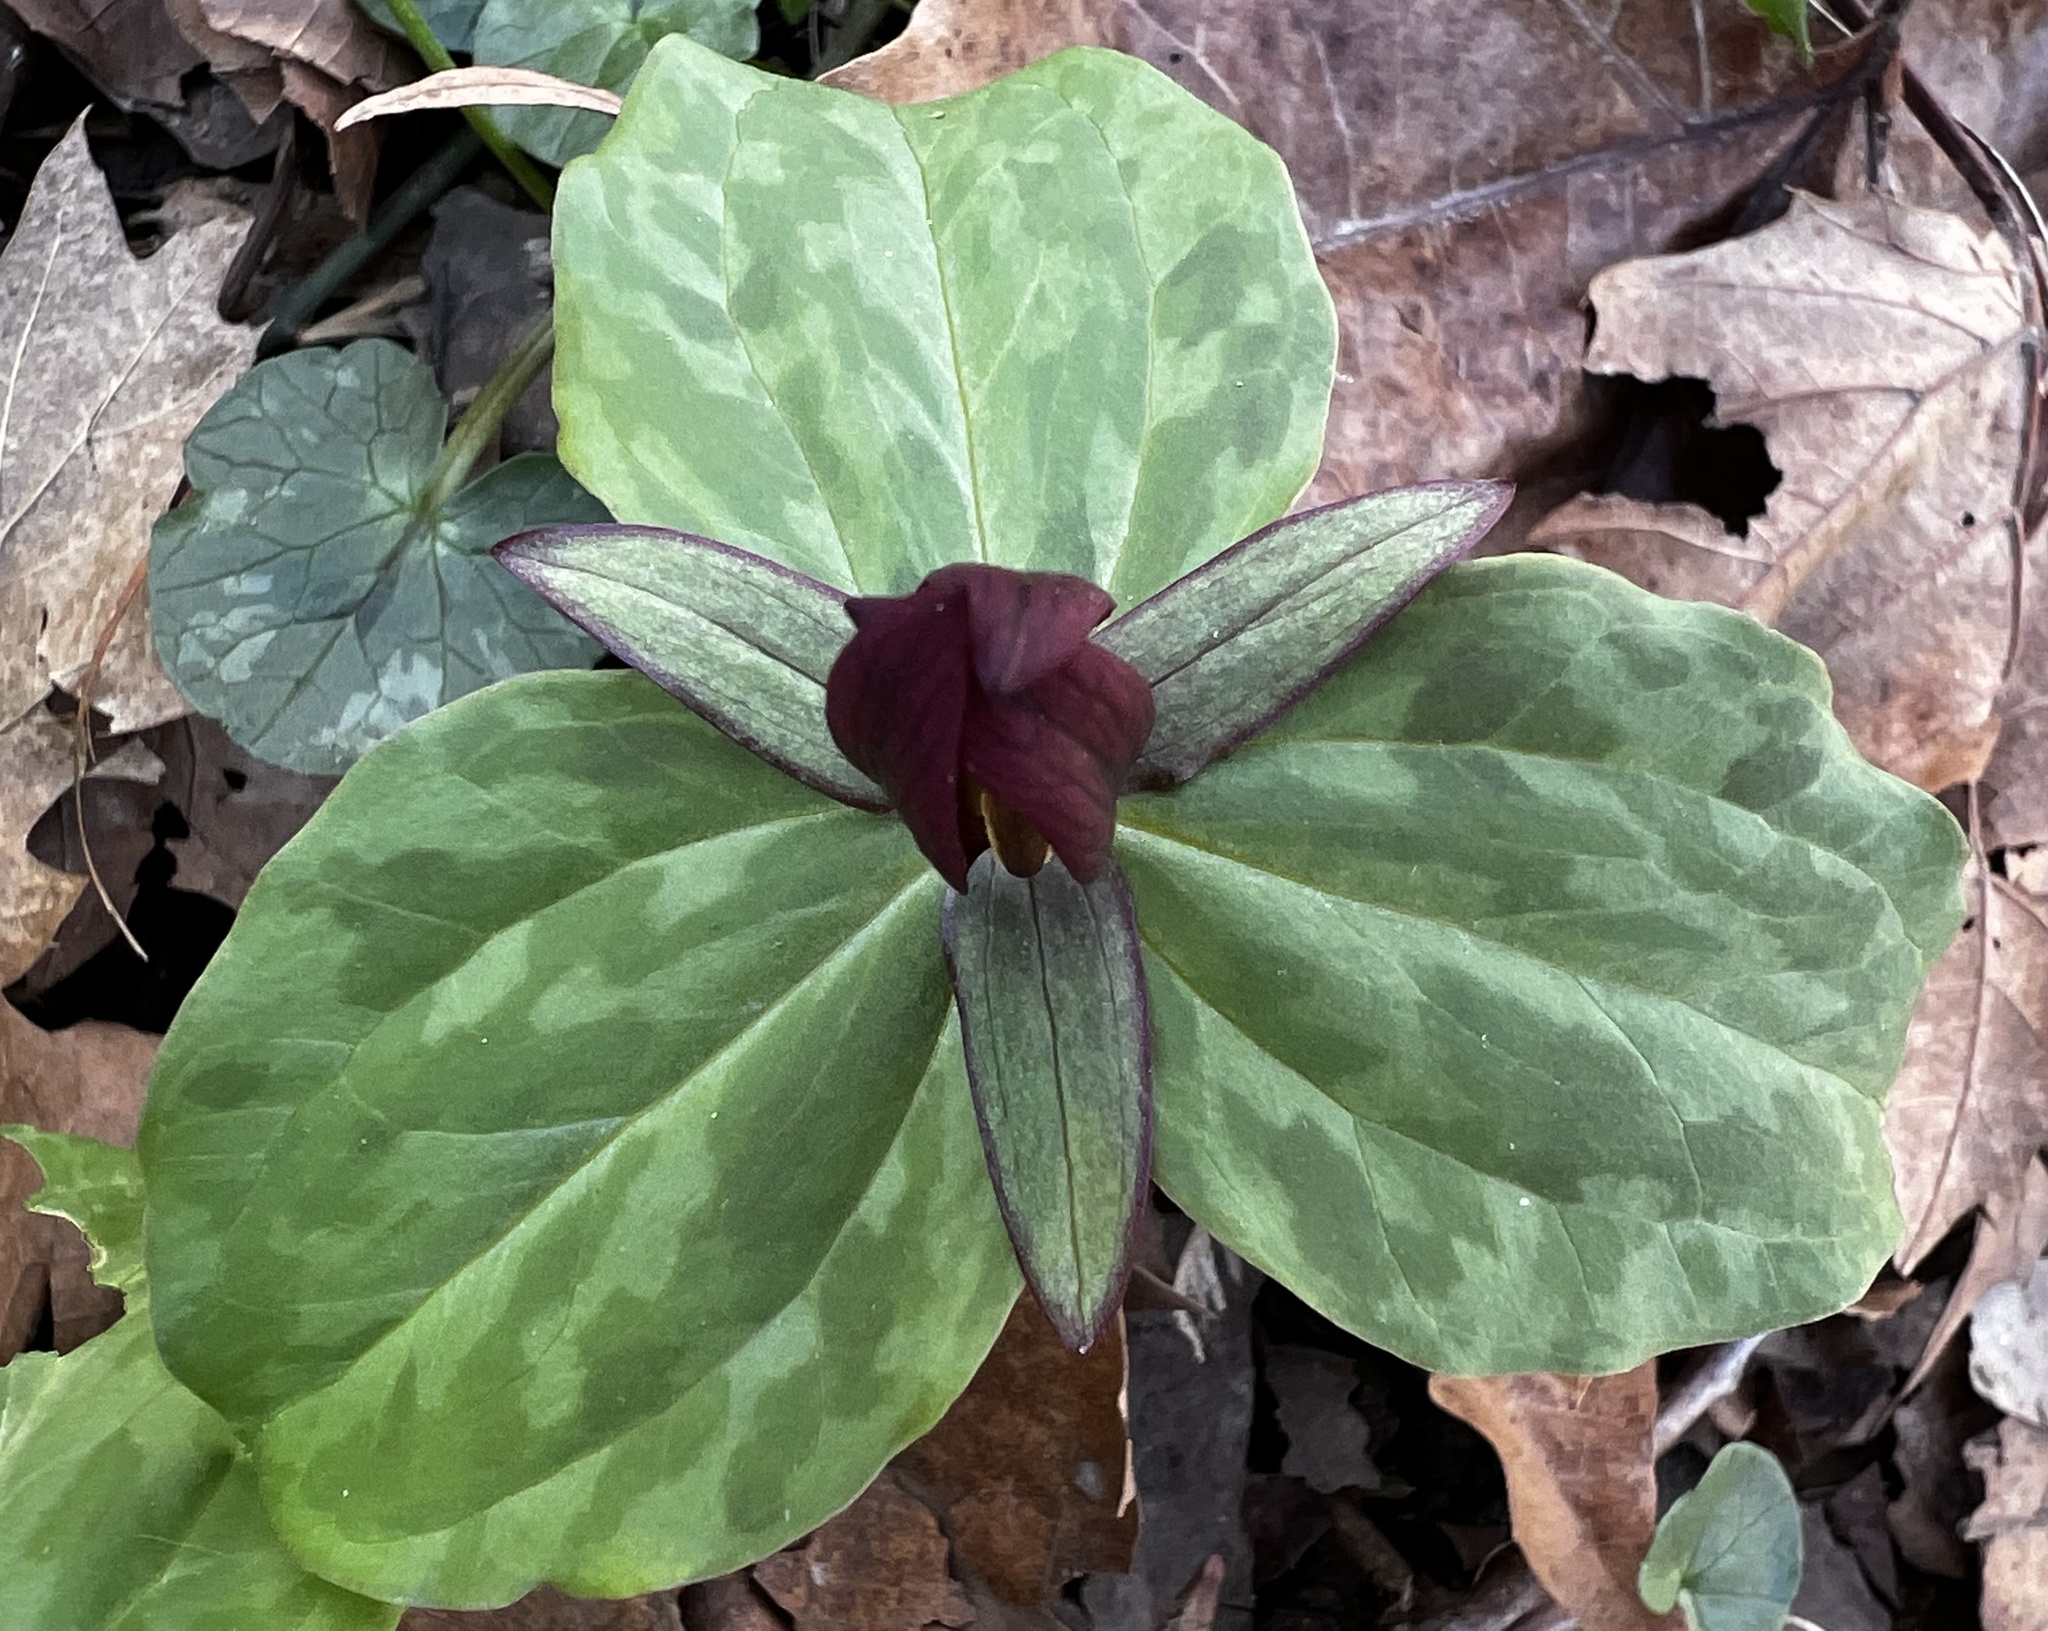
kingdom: Plantae
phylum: Tracheophyta
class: Liliopsida
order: Liliales
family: Melanthiaceae
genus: Trillium
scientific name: Trillium sessile
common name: Sessile trillium
